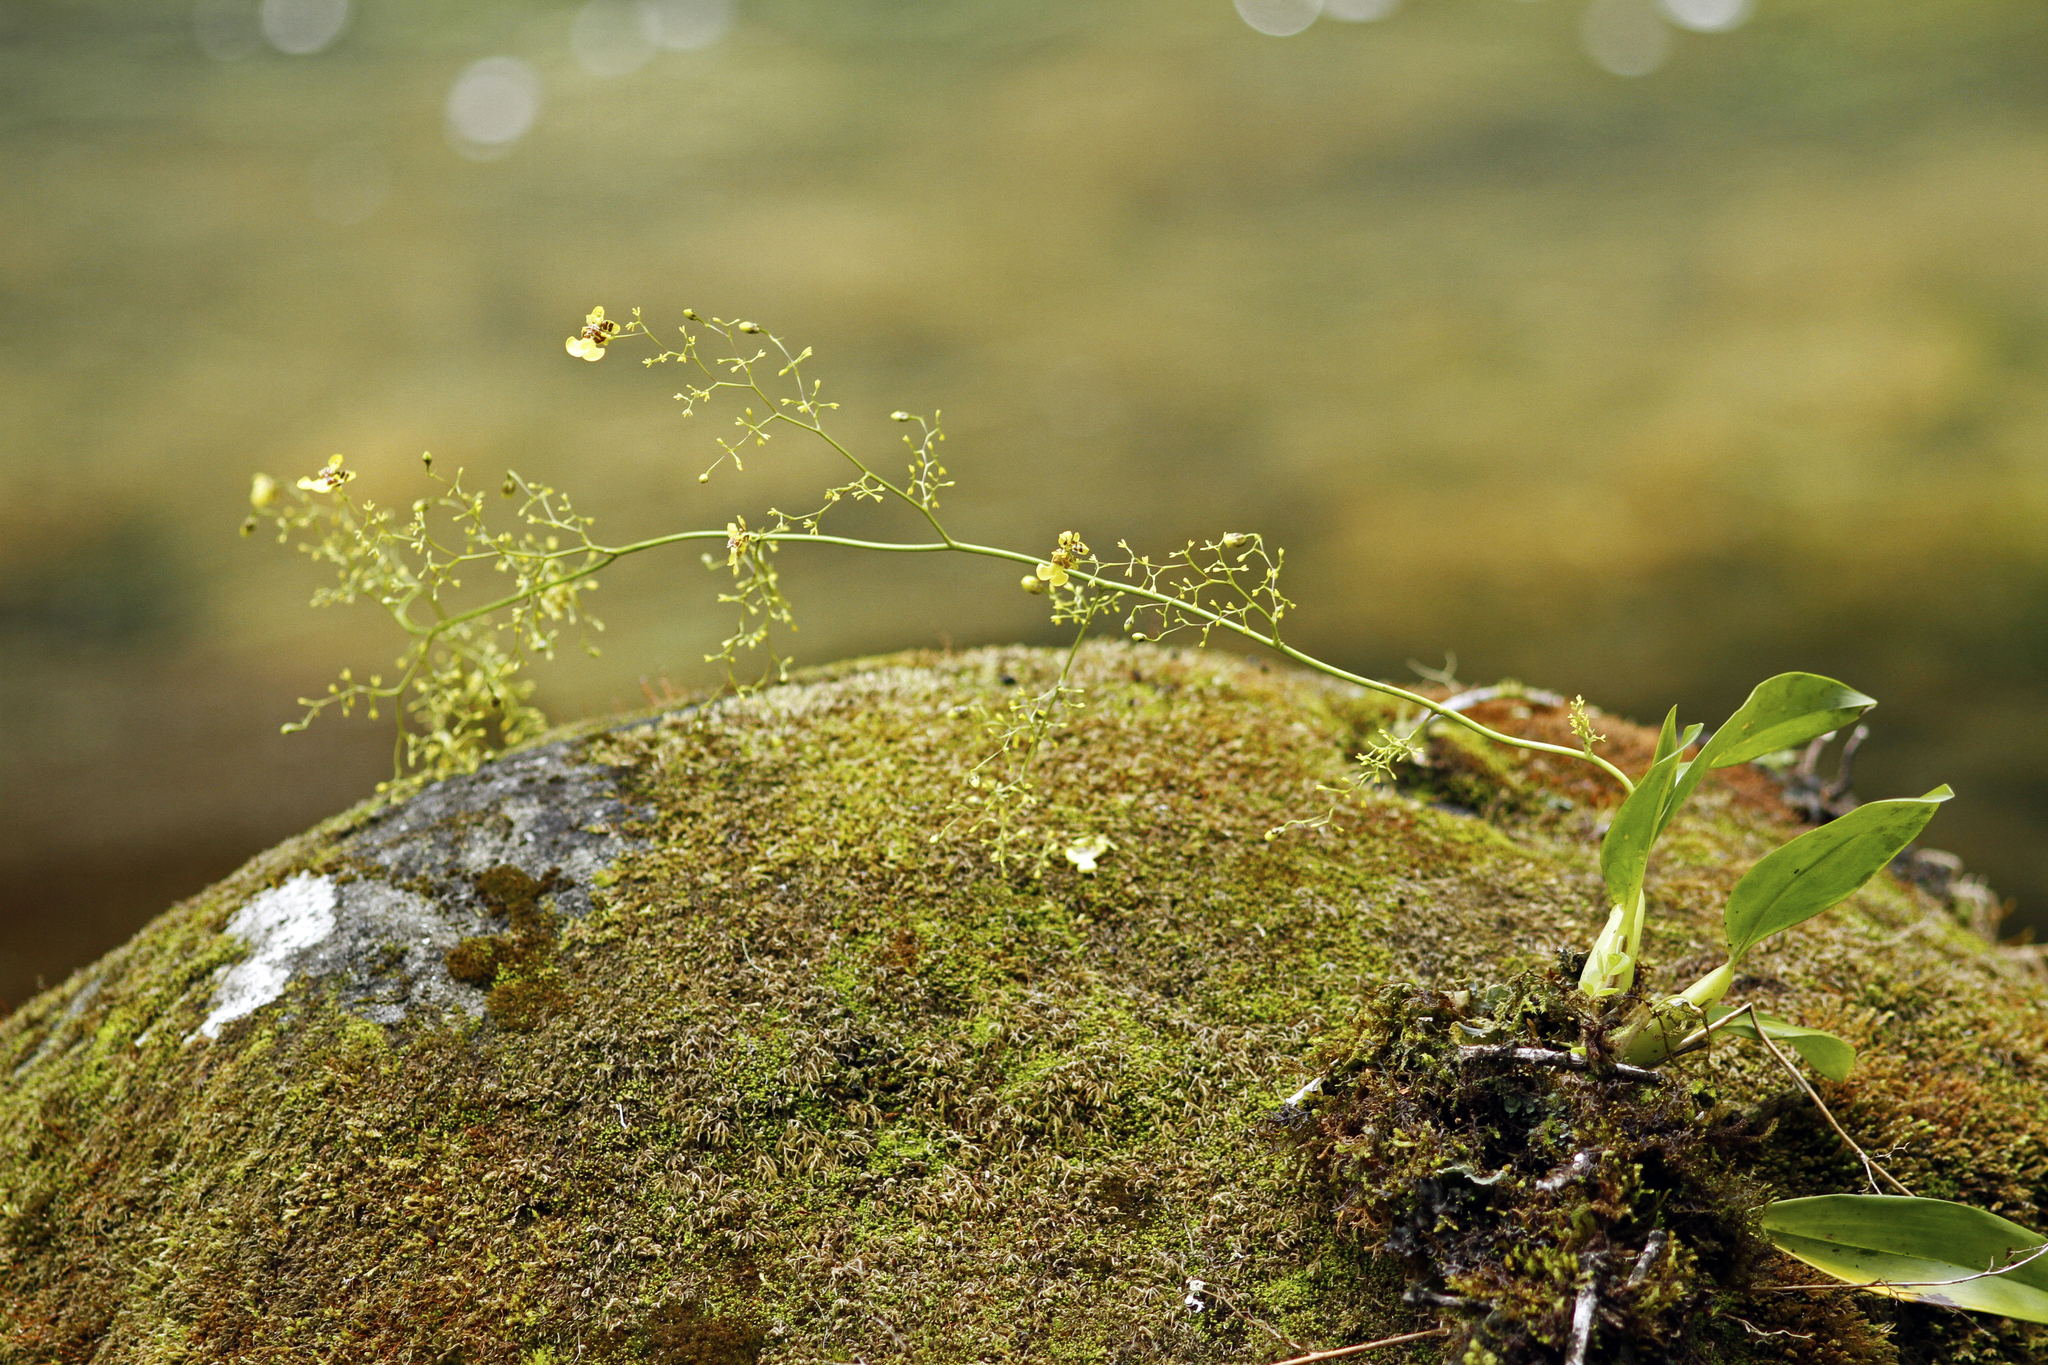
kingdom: Plantae
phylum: Tracheophyta
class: Liliopsida
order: Asparagales
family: Orchidaceae
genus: Oncidium
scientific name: Oncidium bryolophotum
